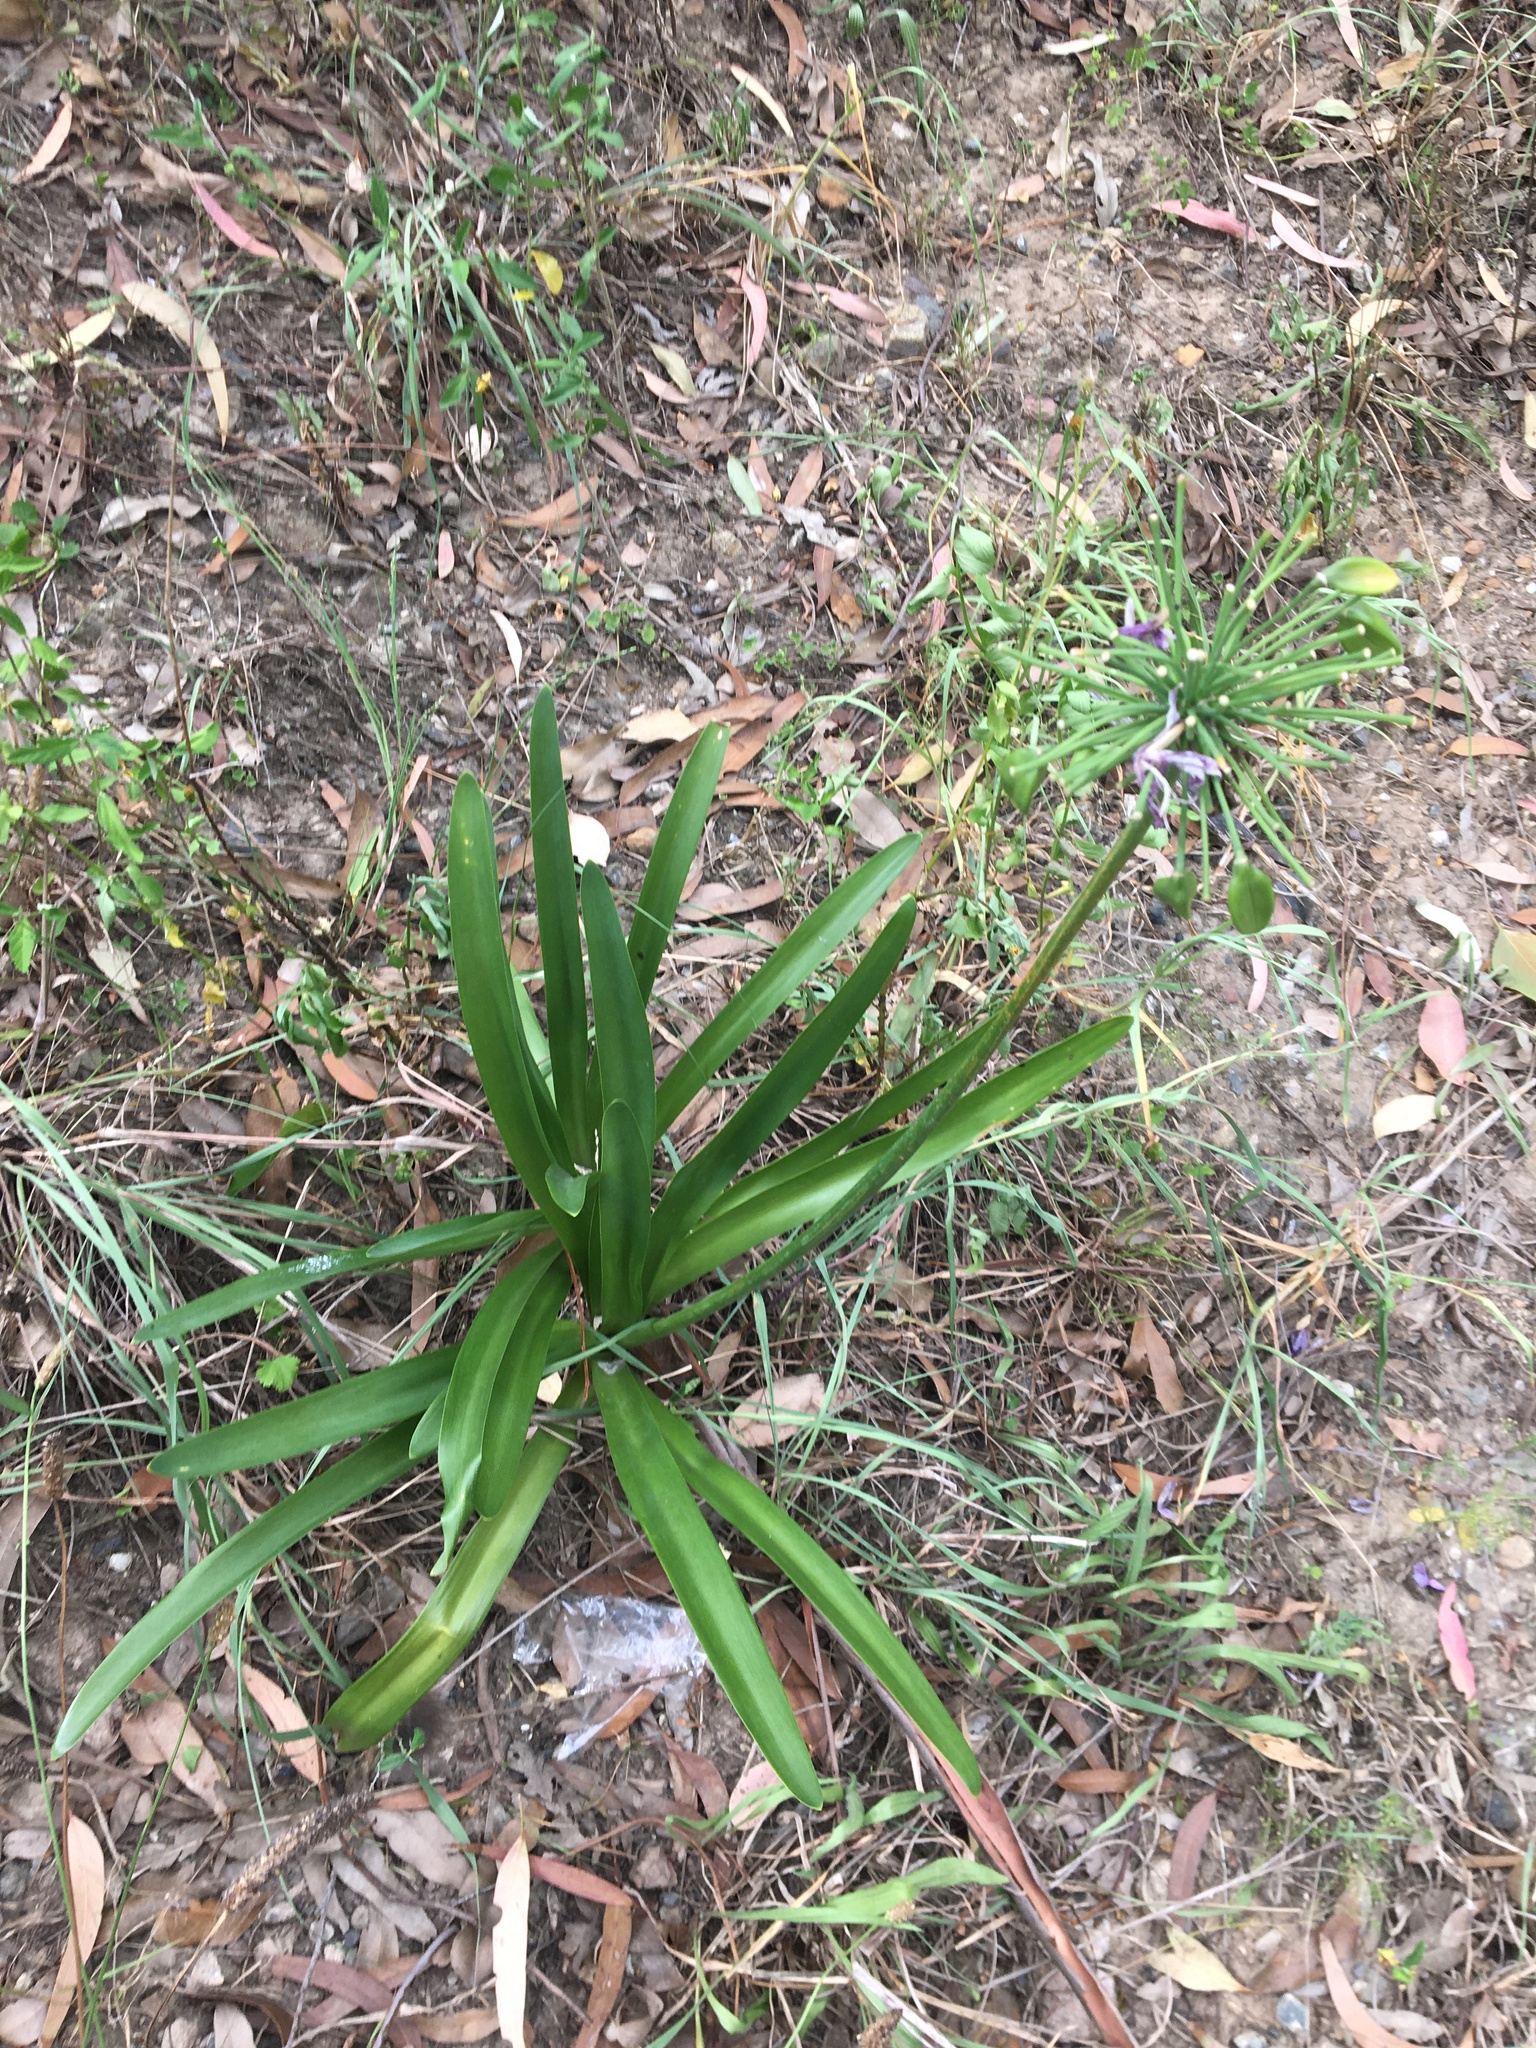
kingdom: Plantae
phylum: Tracheophyta
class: Liliopsida
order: Asparagales
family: Amaryllidaceae
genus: Agapanthus
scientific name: Agapanthus praecox
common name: African-lily
